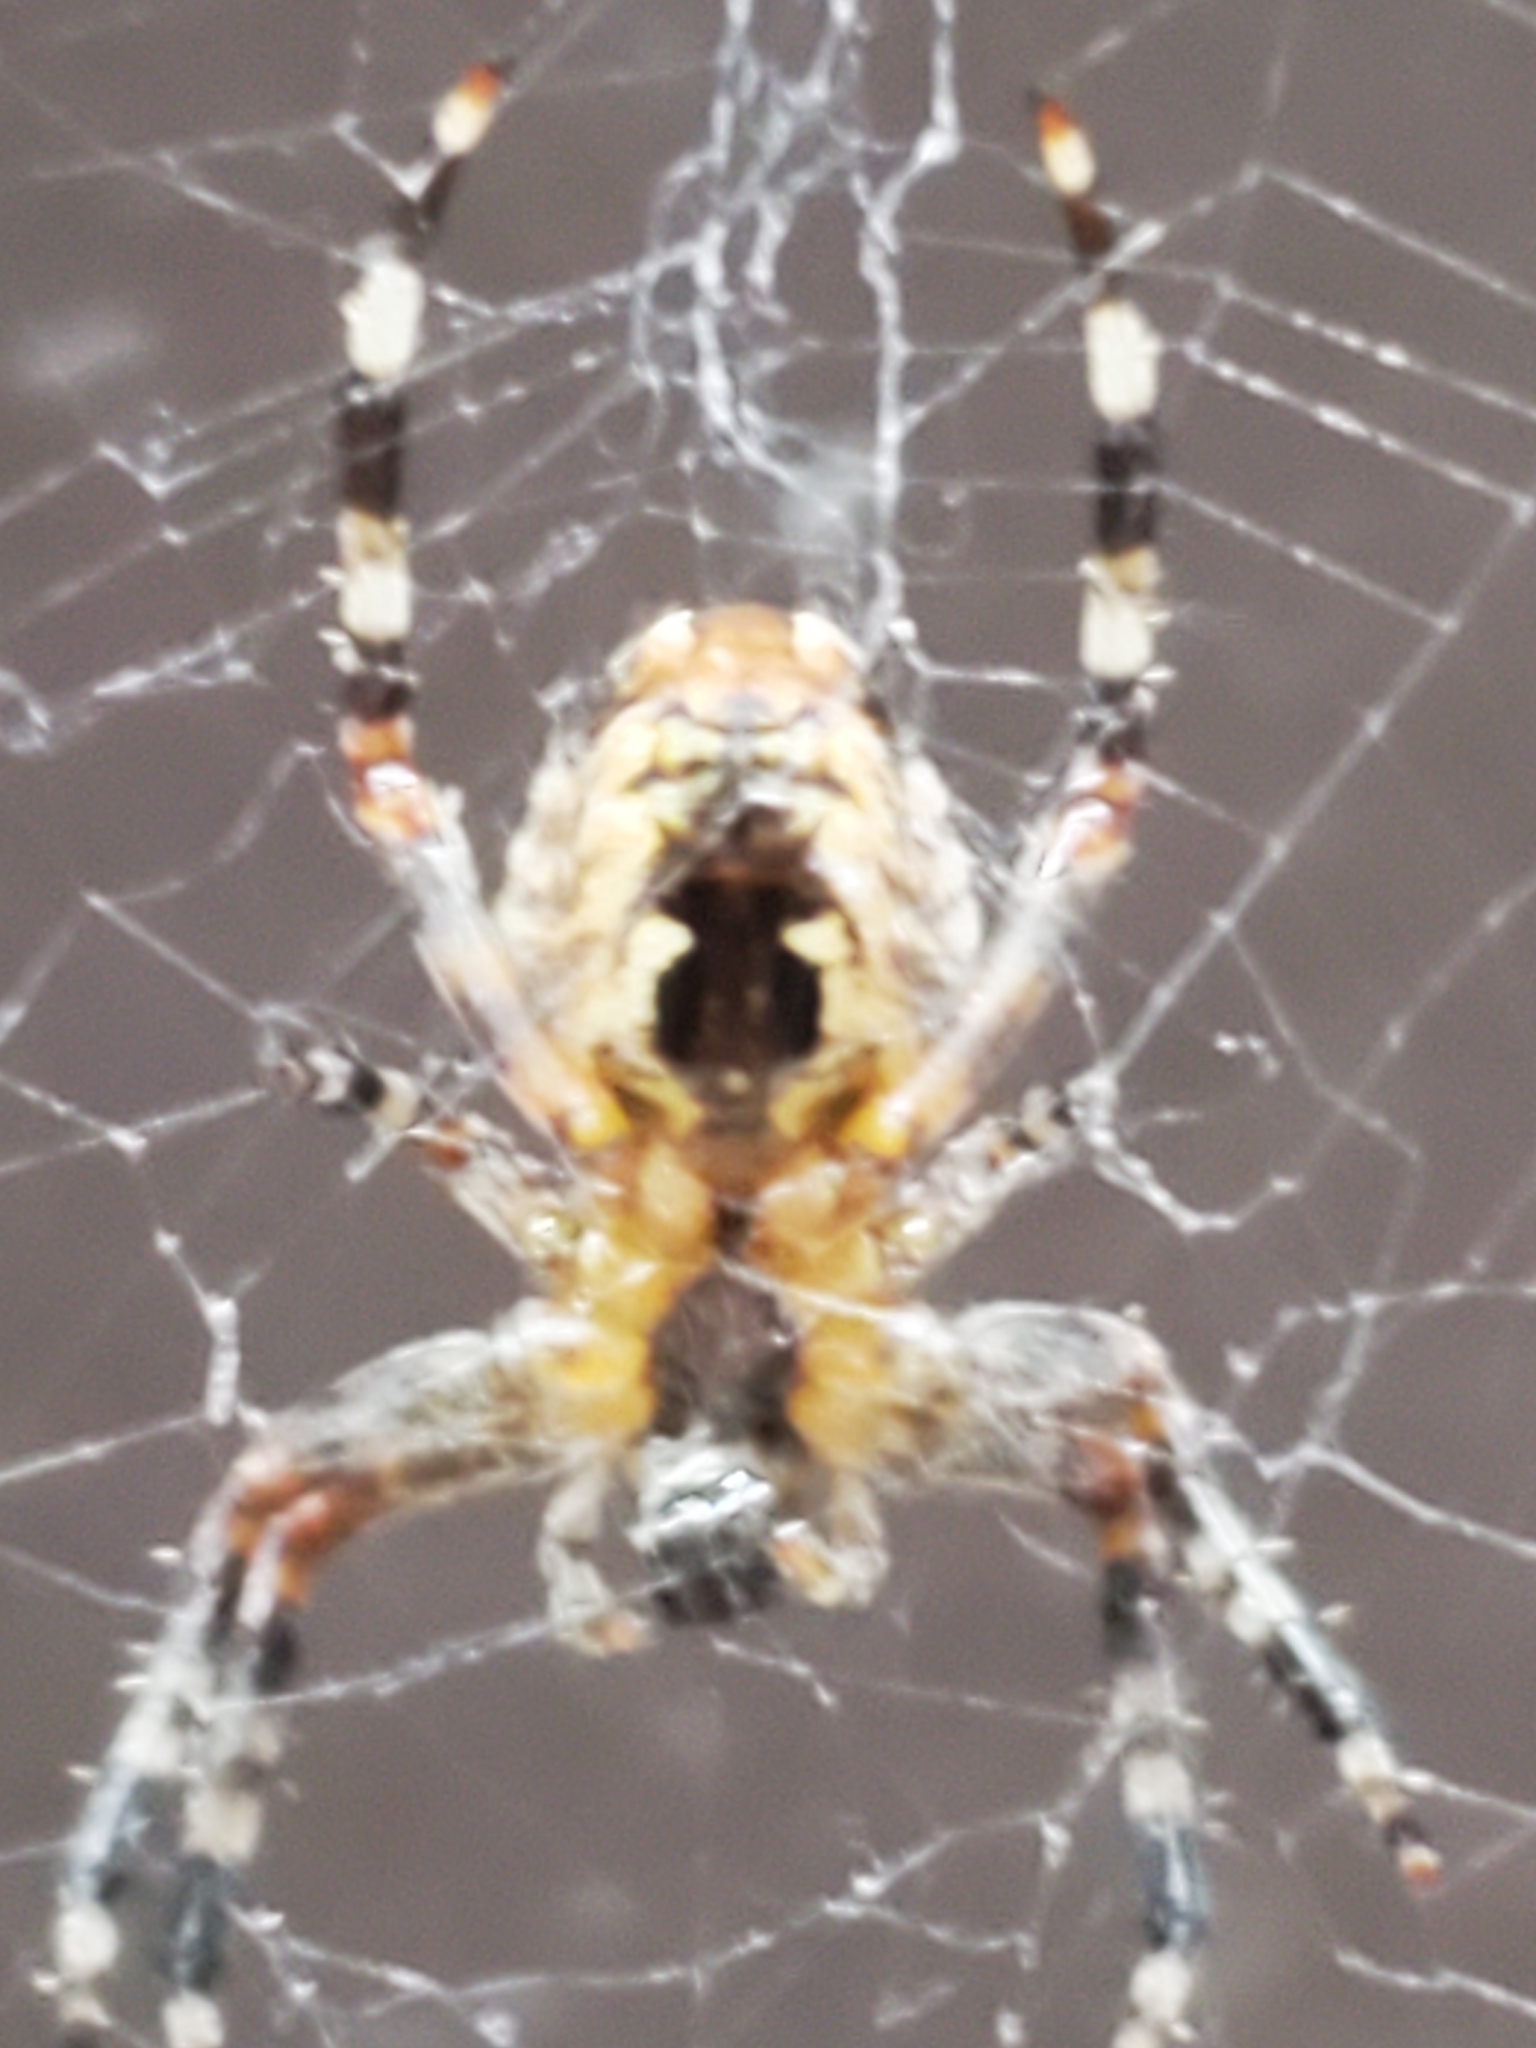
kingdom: Animalia
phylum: Arthropoda
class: Arachnida
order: Araneae
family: Araneidae
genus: Araneus
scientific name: Araneus diadematus
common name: Cross orbweaver
